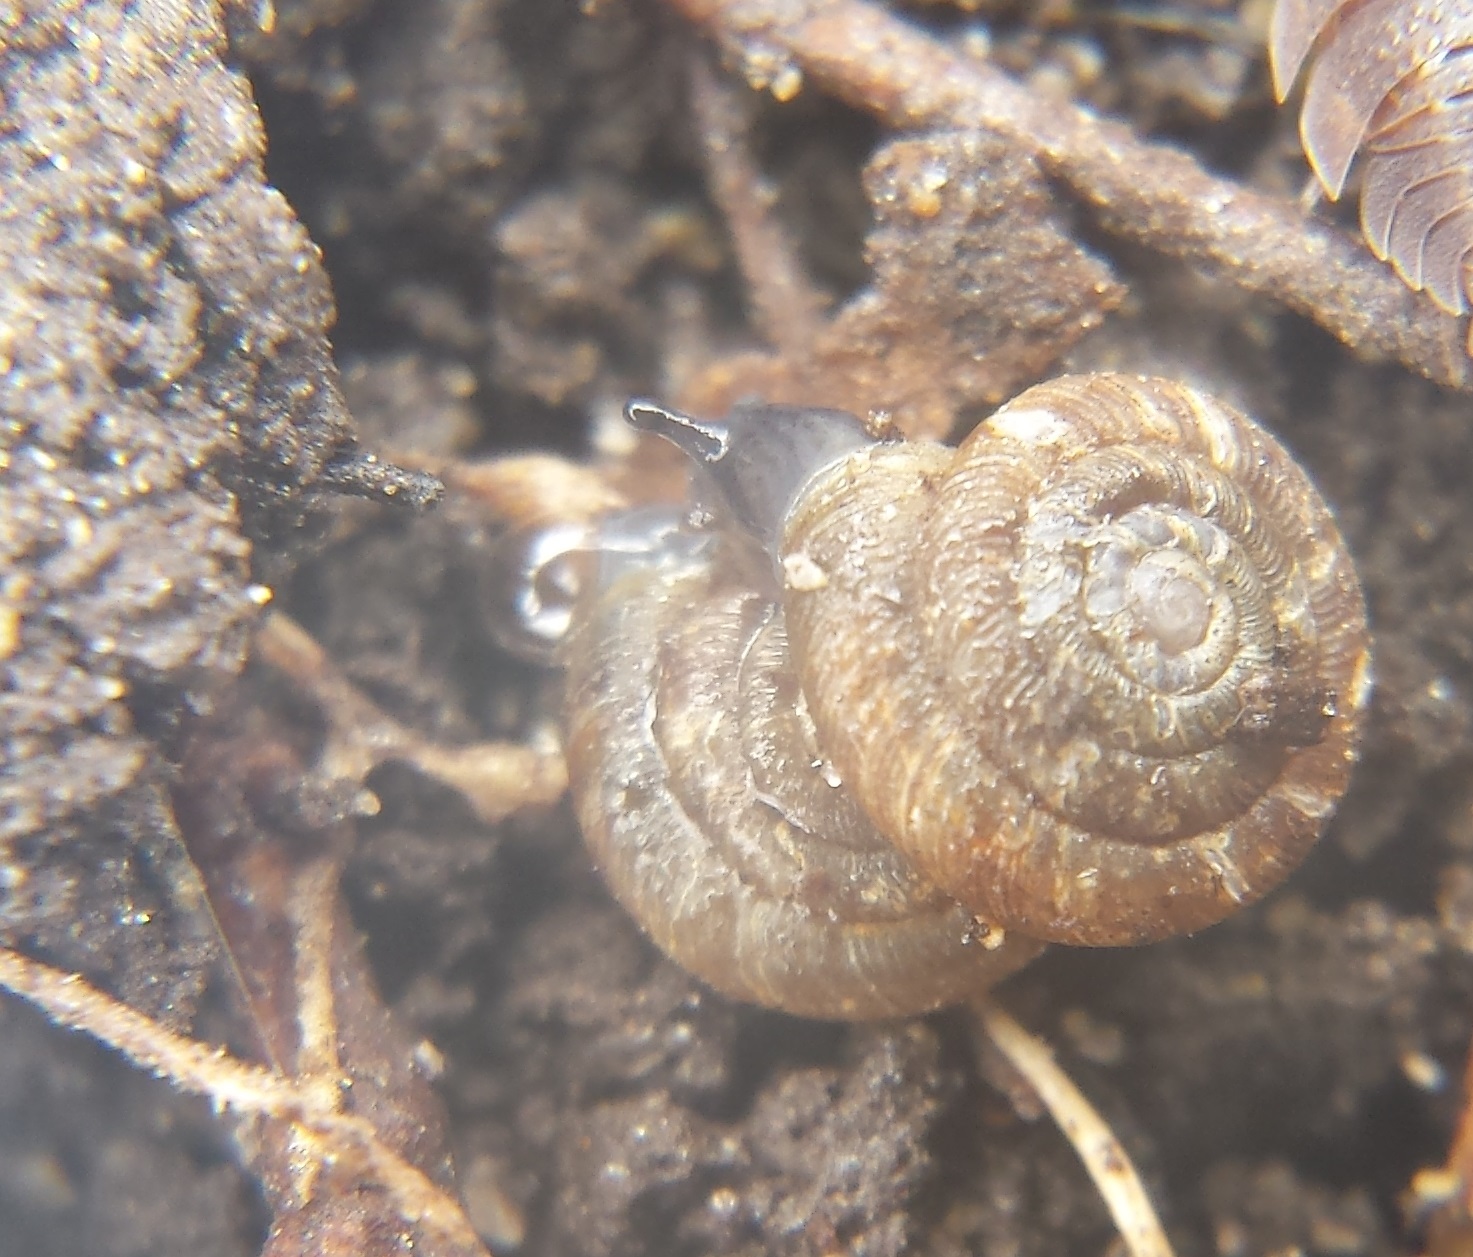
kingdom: Animalia
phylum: Mollusca
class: Gastropoda
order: Stylommatophora
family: Discidae
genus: Discus
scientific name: Discus rotundatus
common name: Rounded snail
